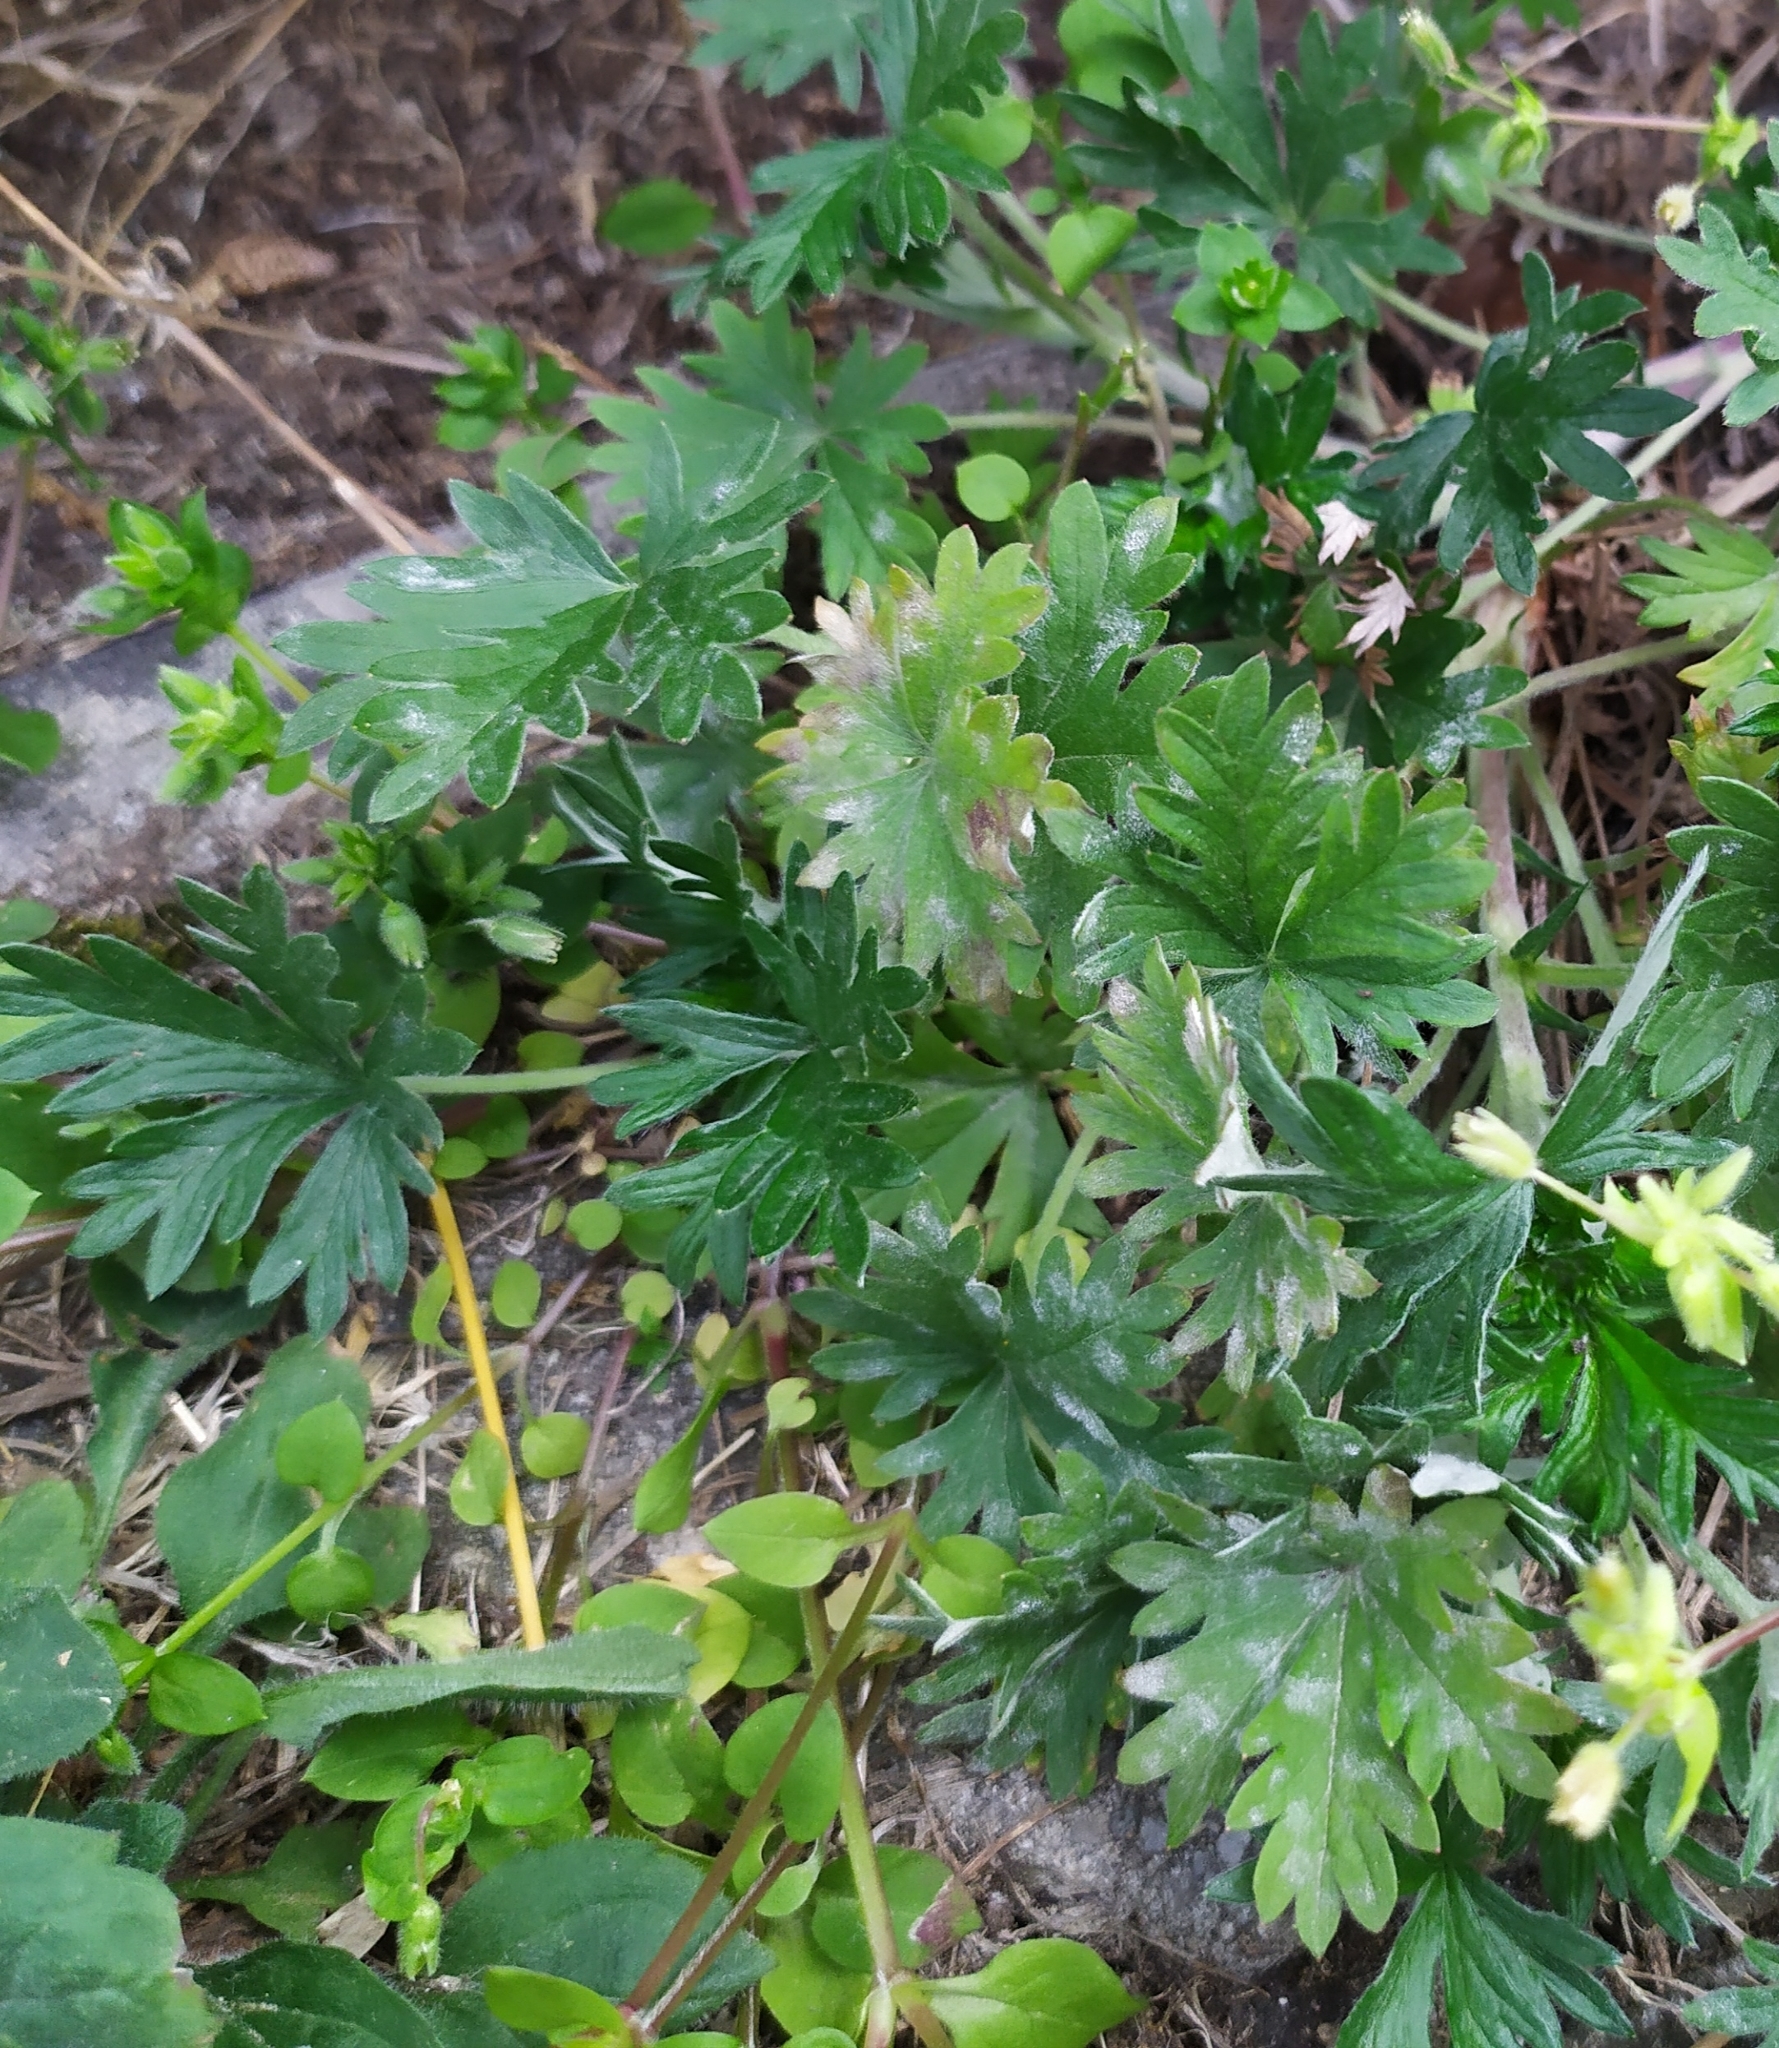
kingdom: Fungi
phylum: Ascomycota
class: Leotiomycetes
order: Helotiales
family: Erysiphaceae
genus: Podosphaera
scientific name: Podosphaera aphanis
